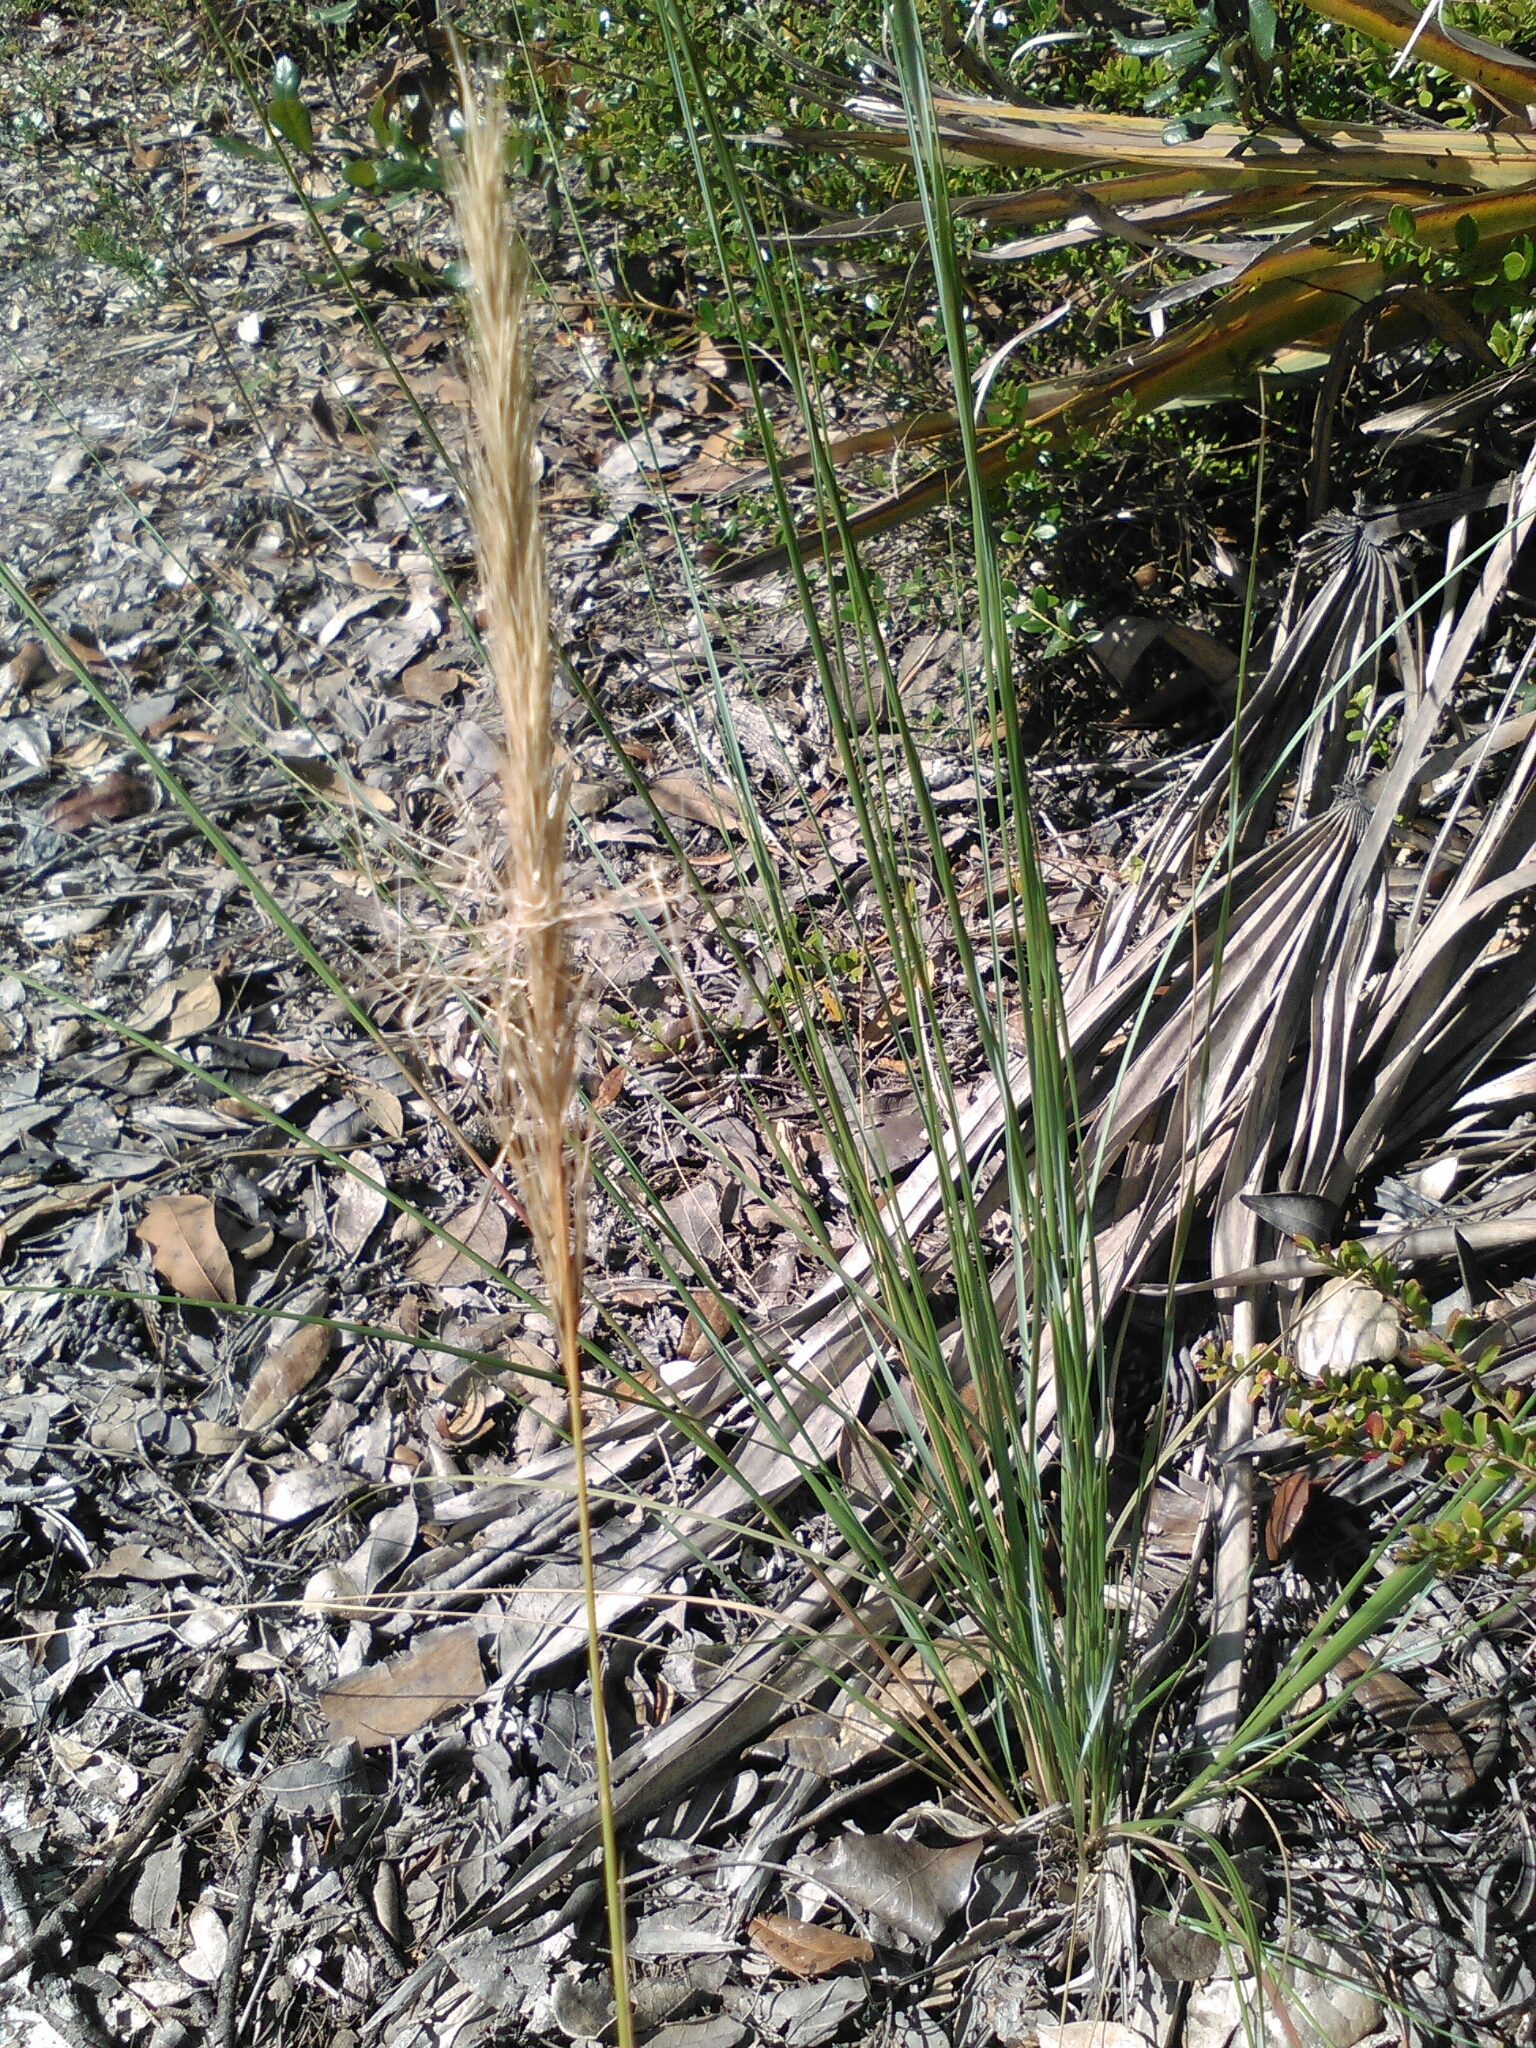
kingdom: Plantae
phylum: Tracheophyta
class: Liliopsida
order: Poales
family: Poaceae
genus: Aristida
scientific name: Aristida spiciformis
